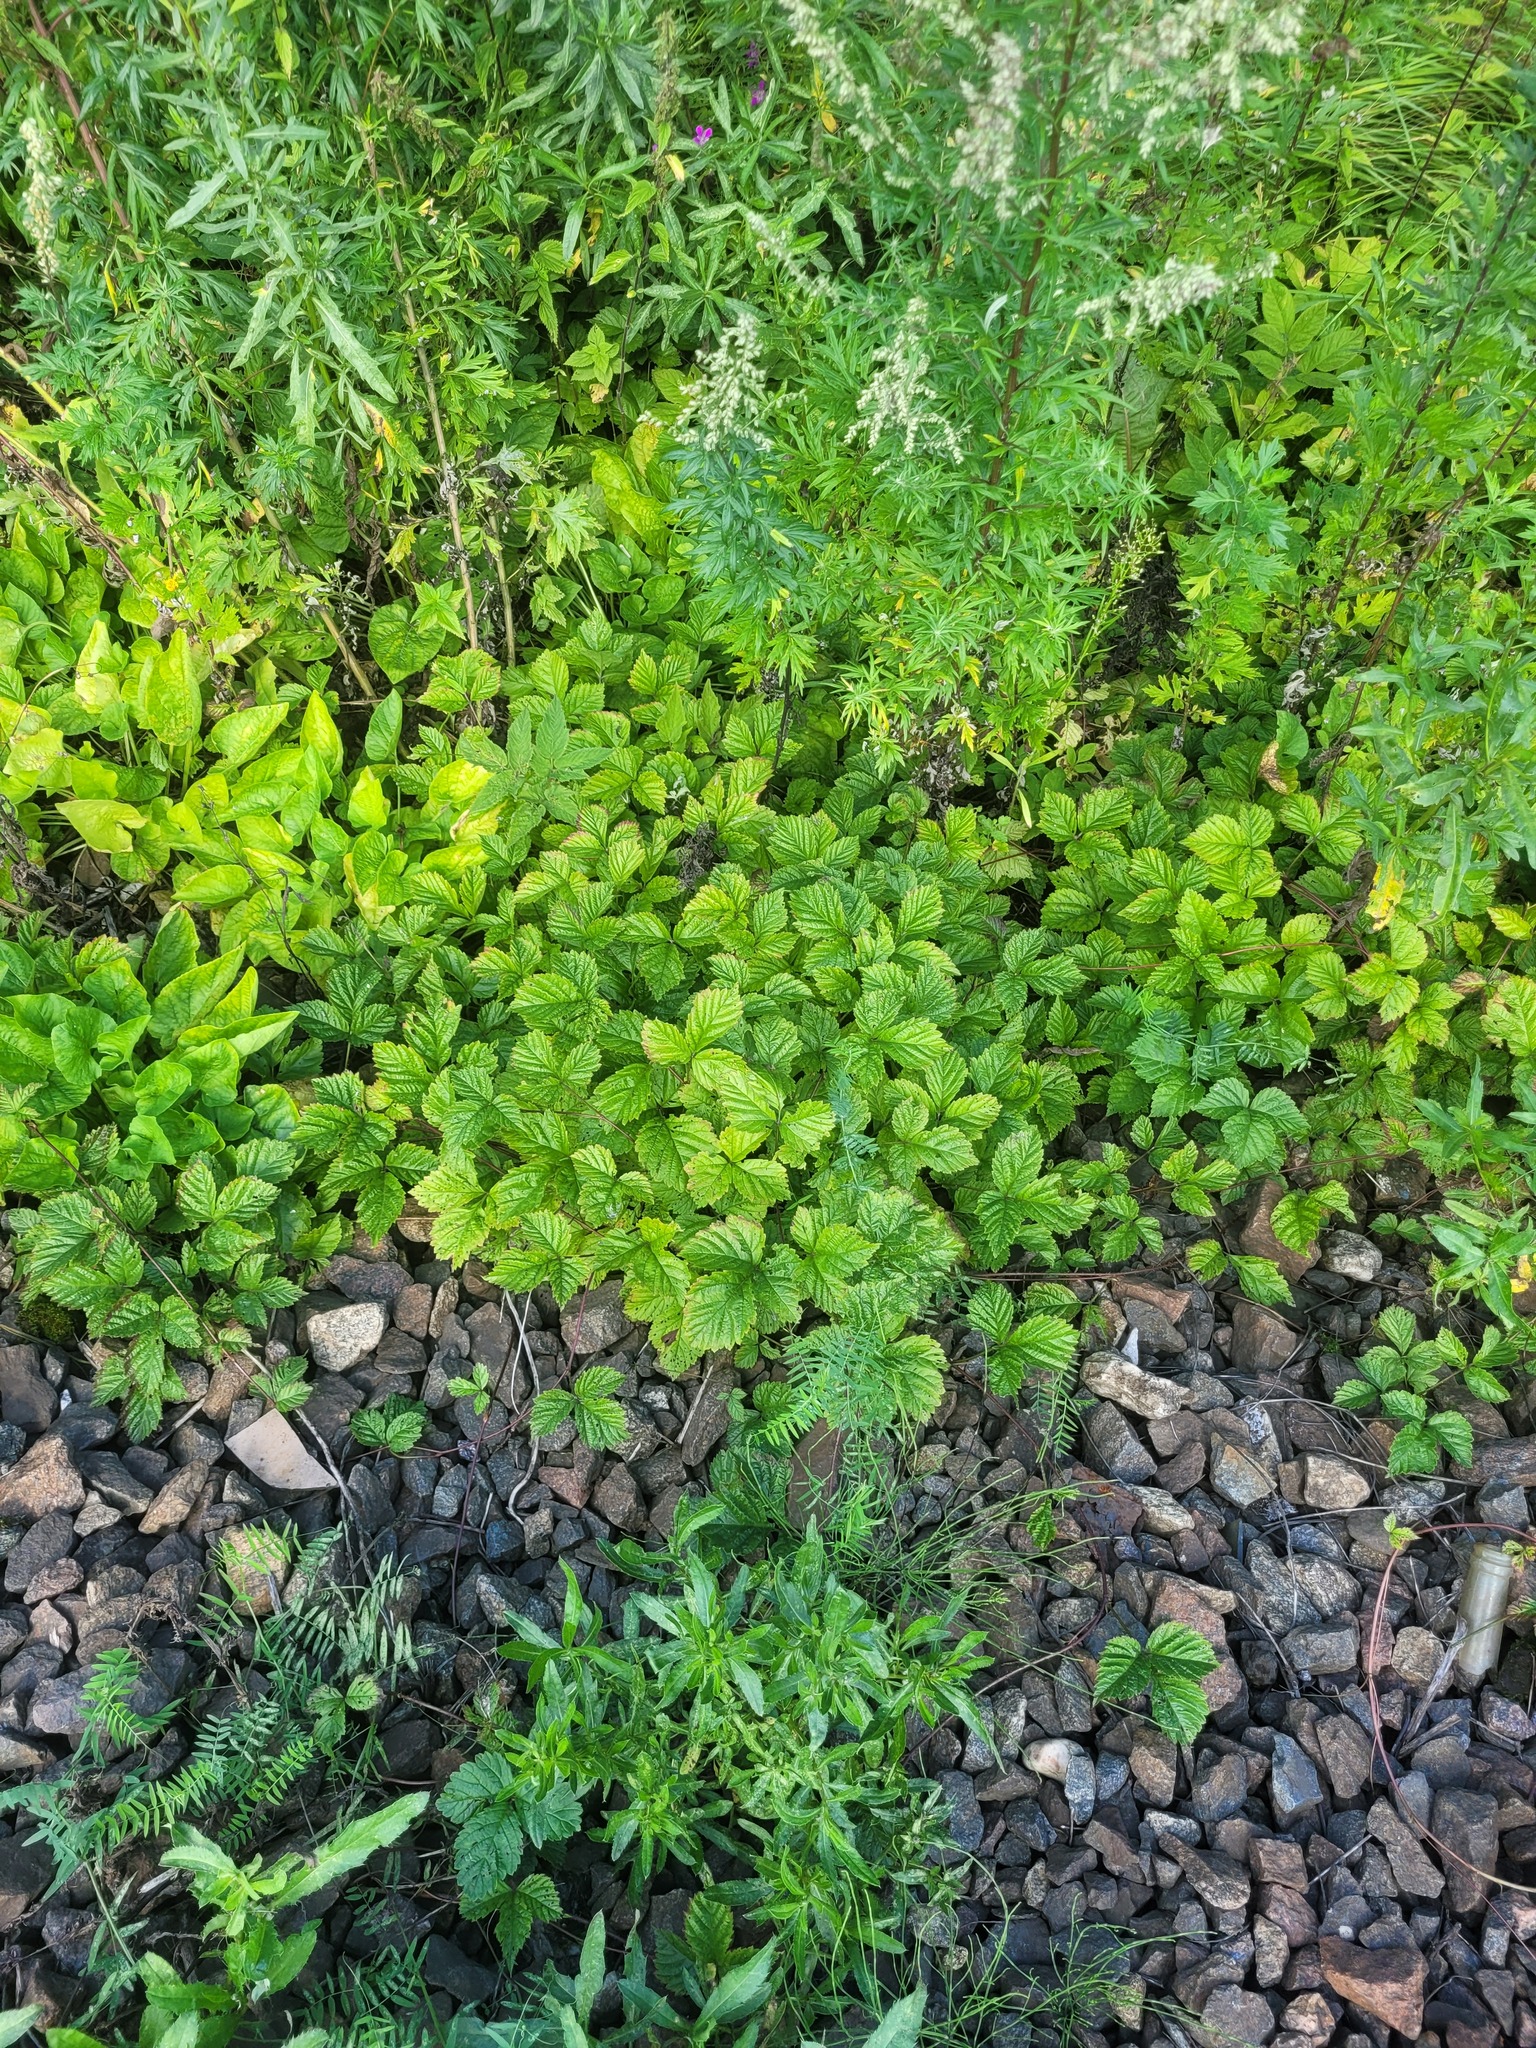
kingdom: Plantae
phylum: Tracheophyta
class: Magnoliopsida
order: Rosales
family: Rosaceae
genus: Rubus
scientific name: Rubus saxatilis
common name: Stone bramble
